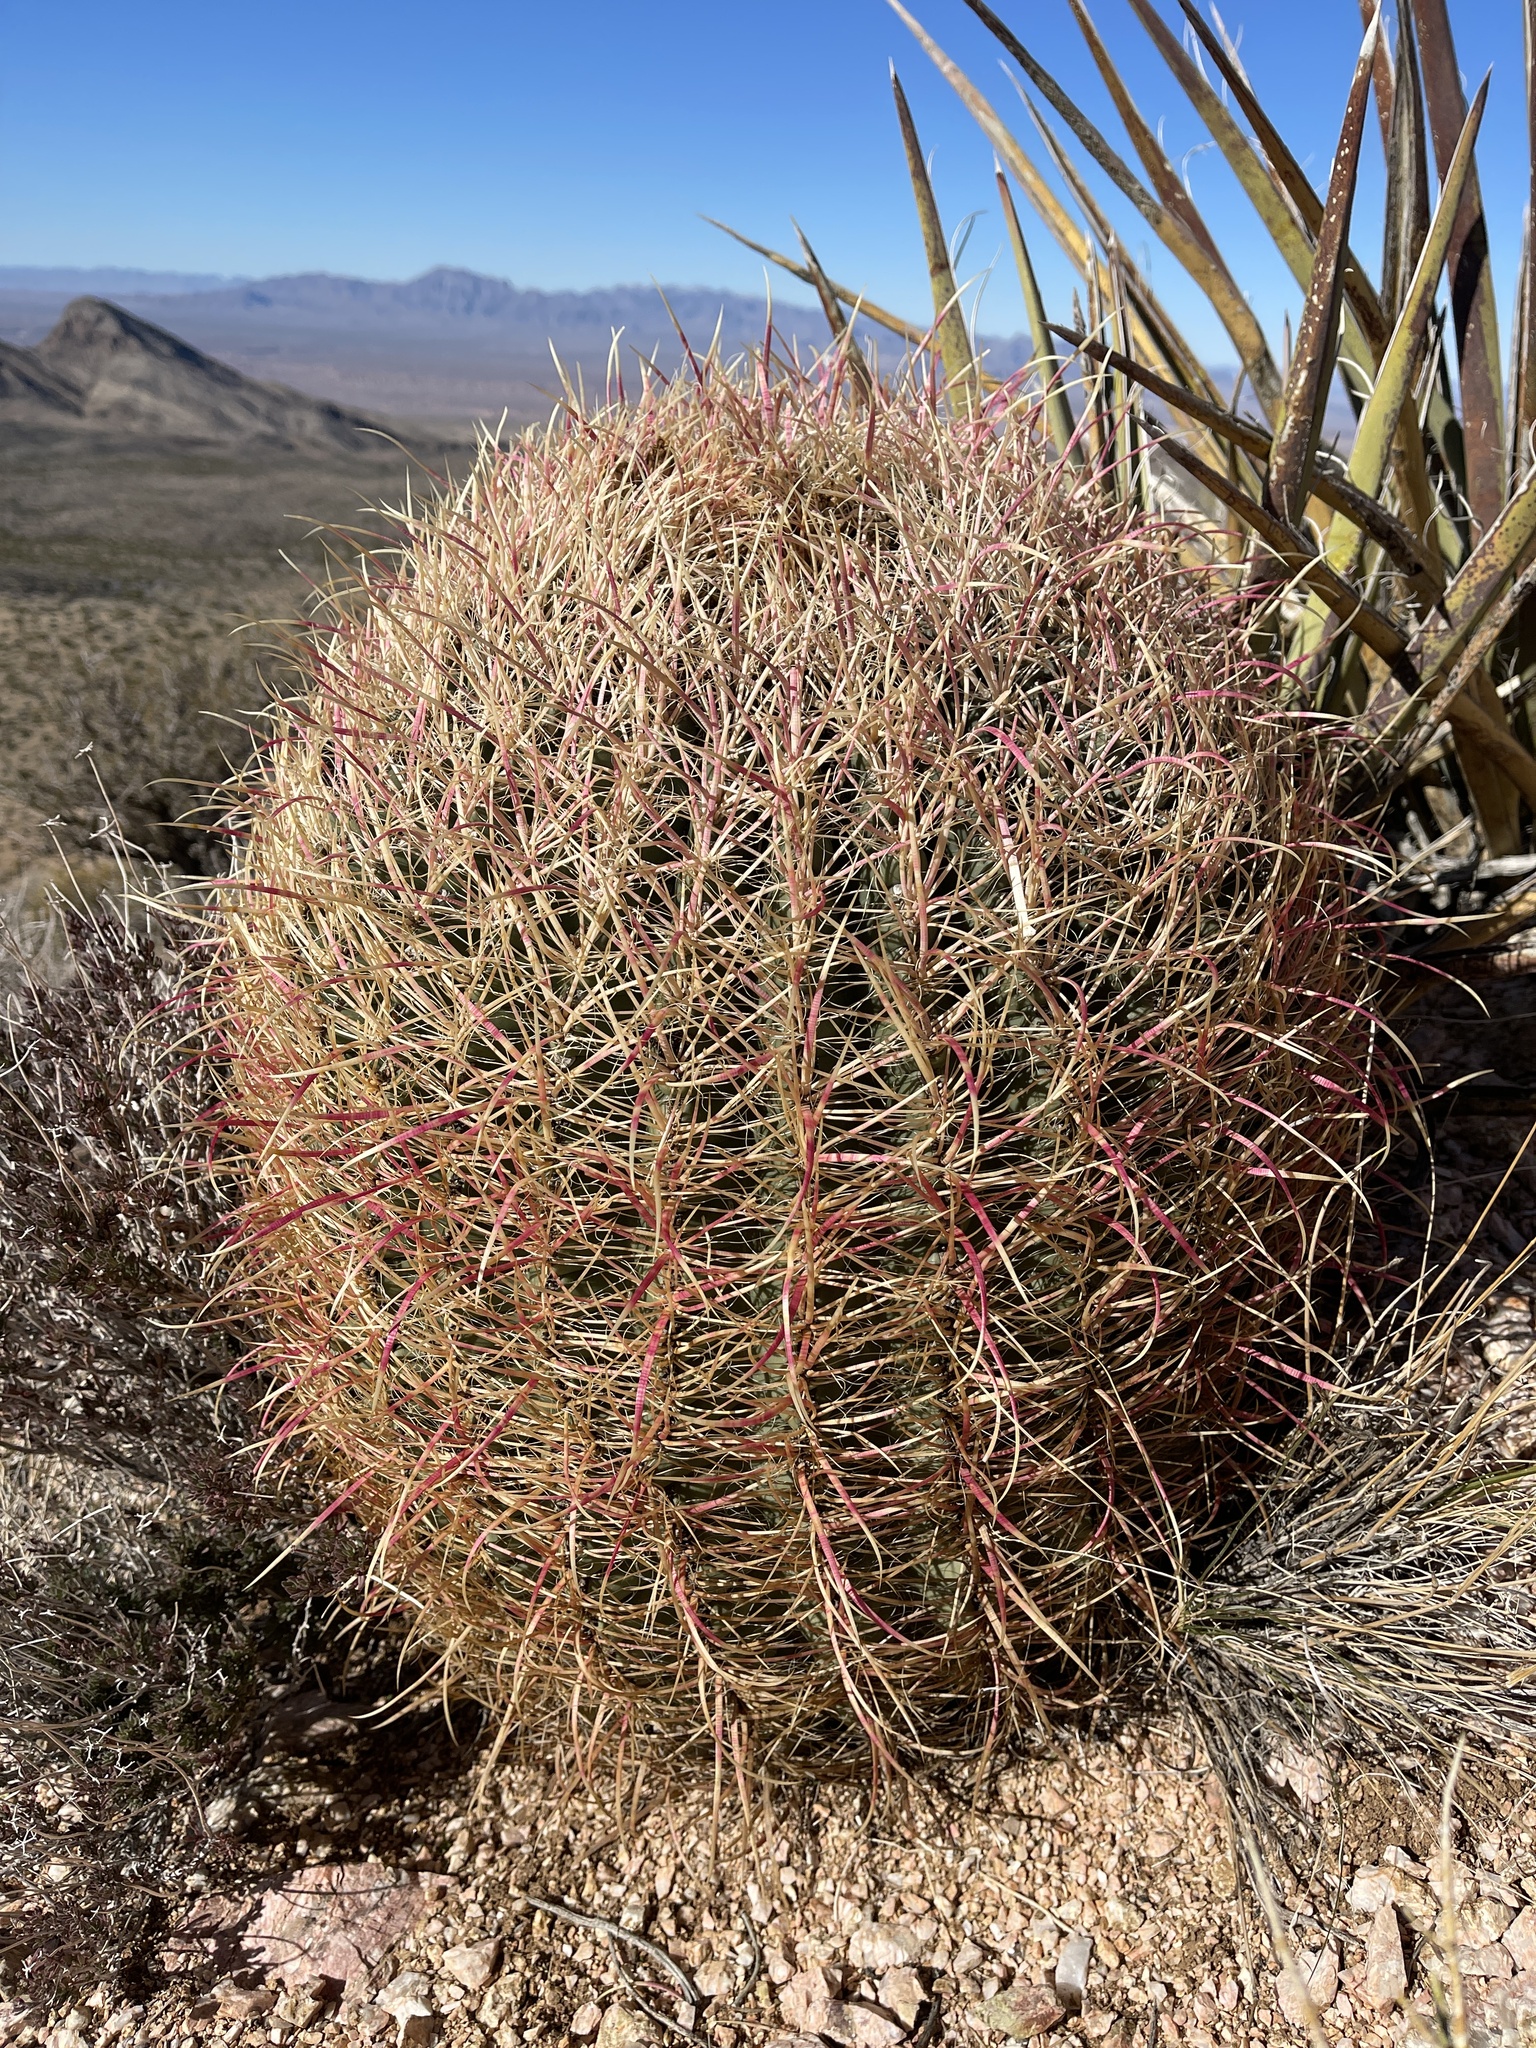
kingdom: Plantae
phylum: Tracheophyta
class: Magnoliopsida
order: Caryophyllales
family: Cactaceae
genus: Ferocactus
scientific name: Ferocactus cylindraceus
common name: California barrel cactus
